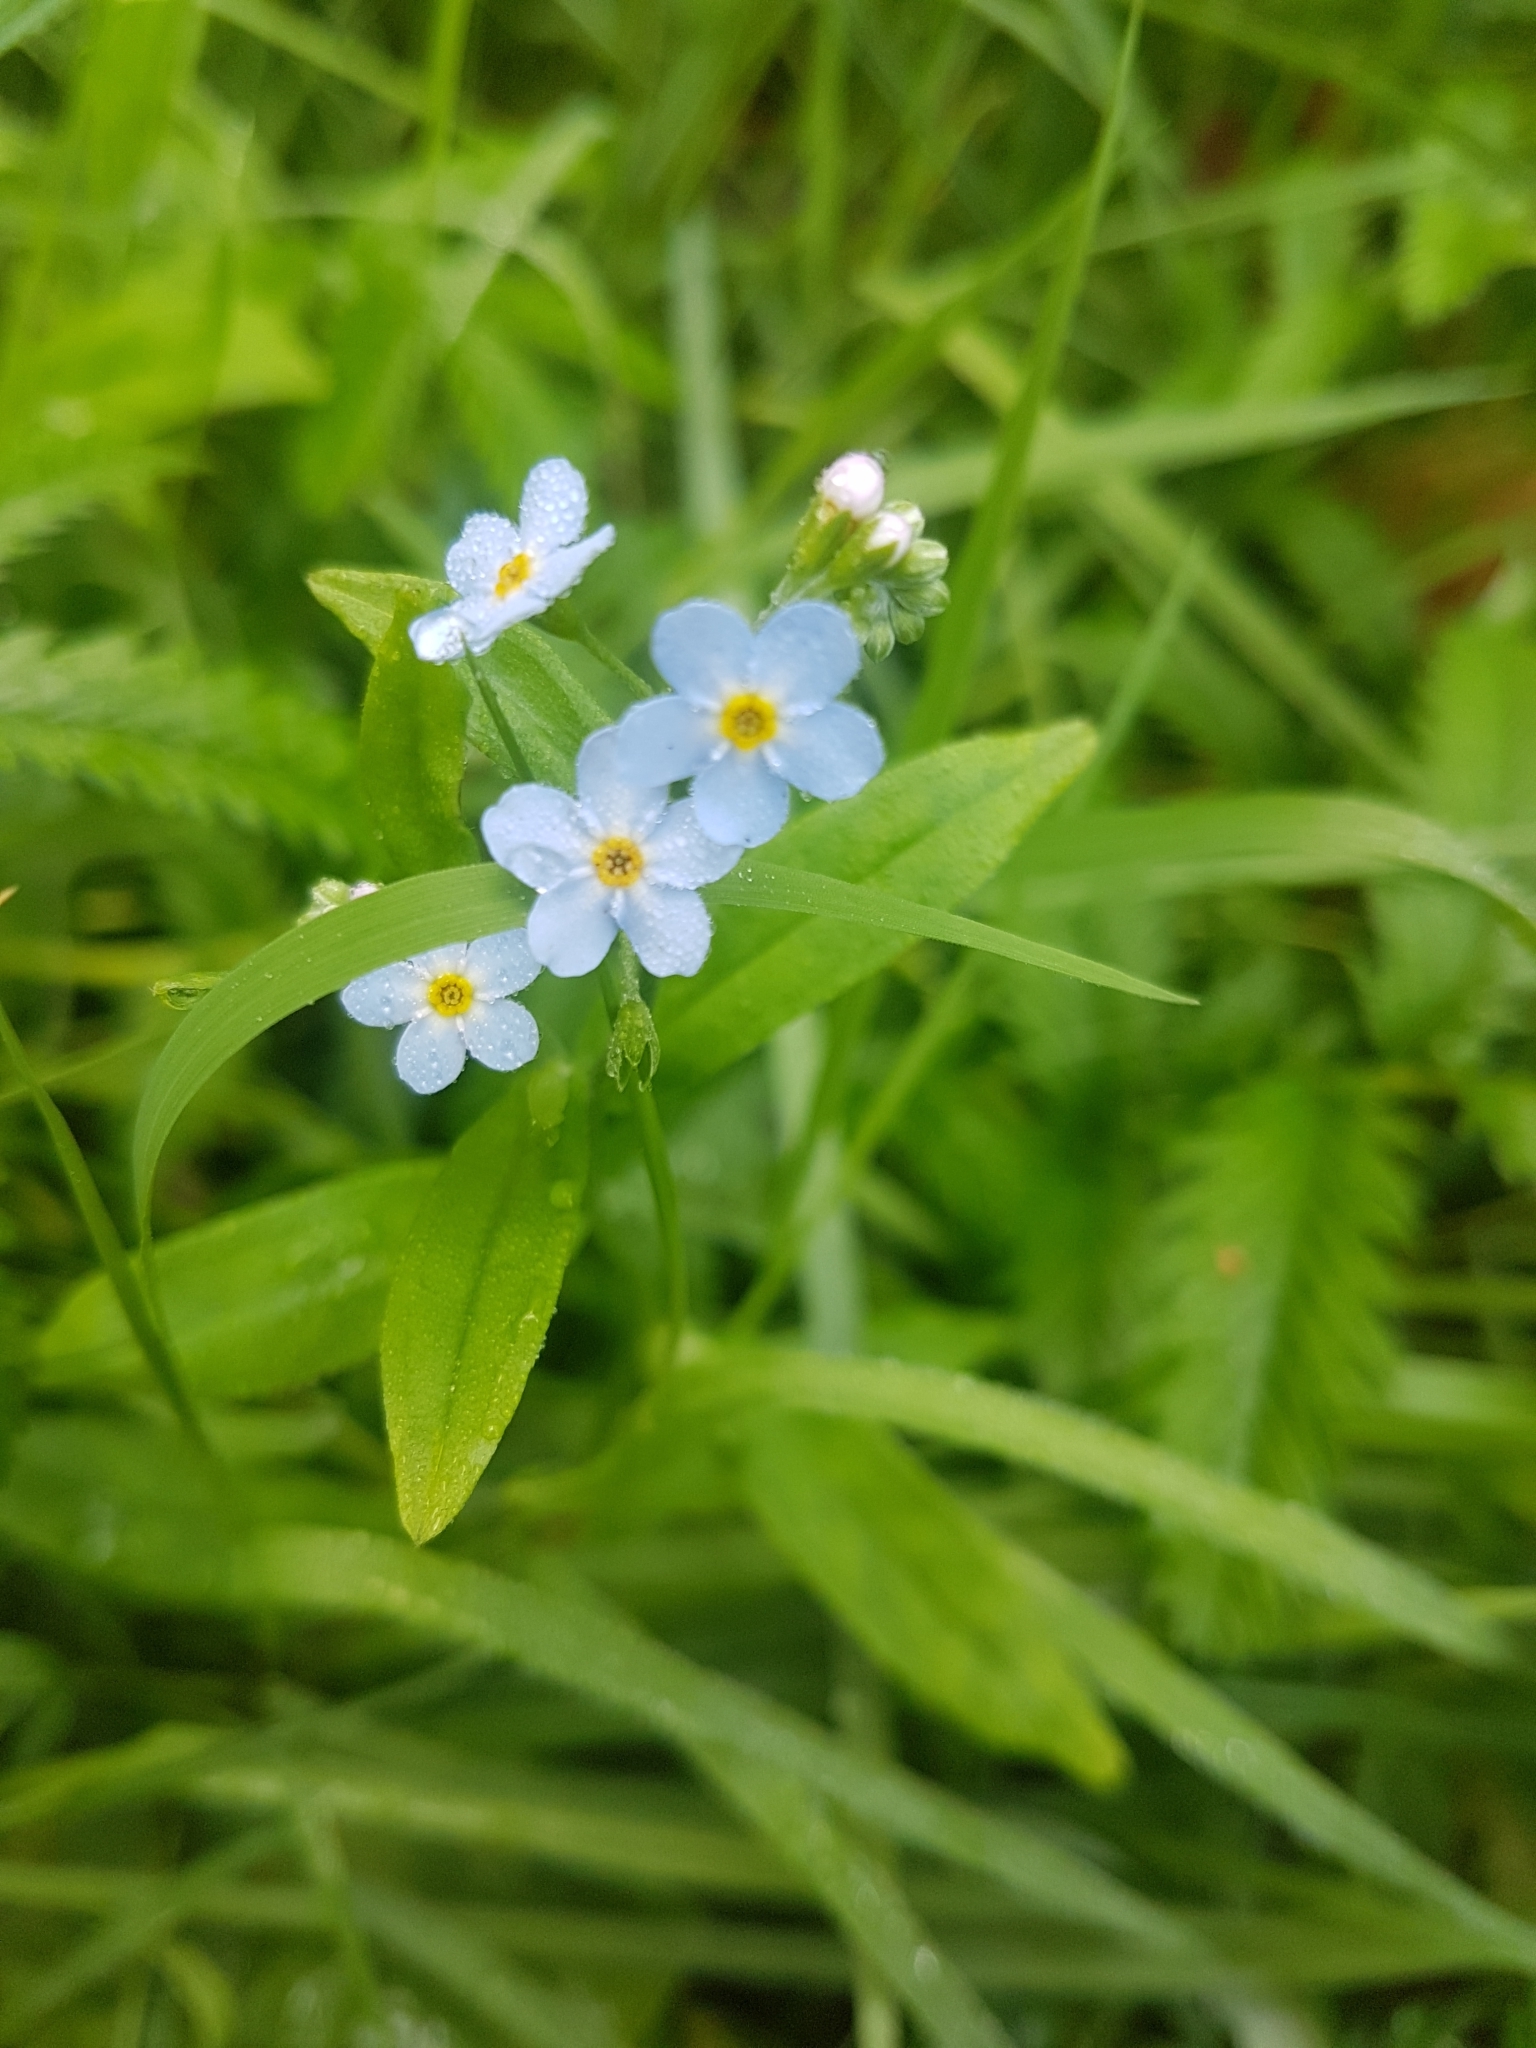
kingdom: Plantae
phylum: Tracheophyta
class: Magnoliopsida
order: Boraginales
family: Boraginaceae
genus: Myosotis
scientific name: Myosotis scorpioides
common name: Water forget-me-not
